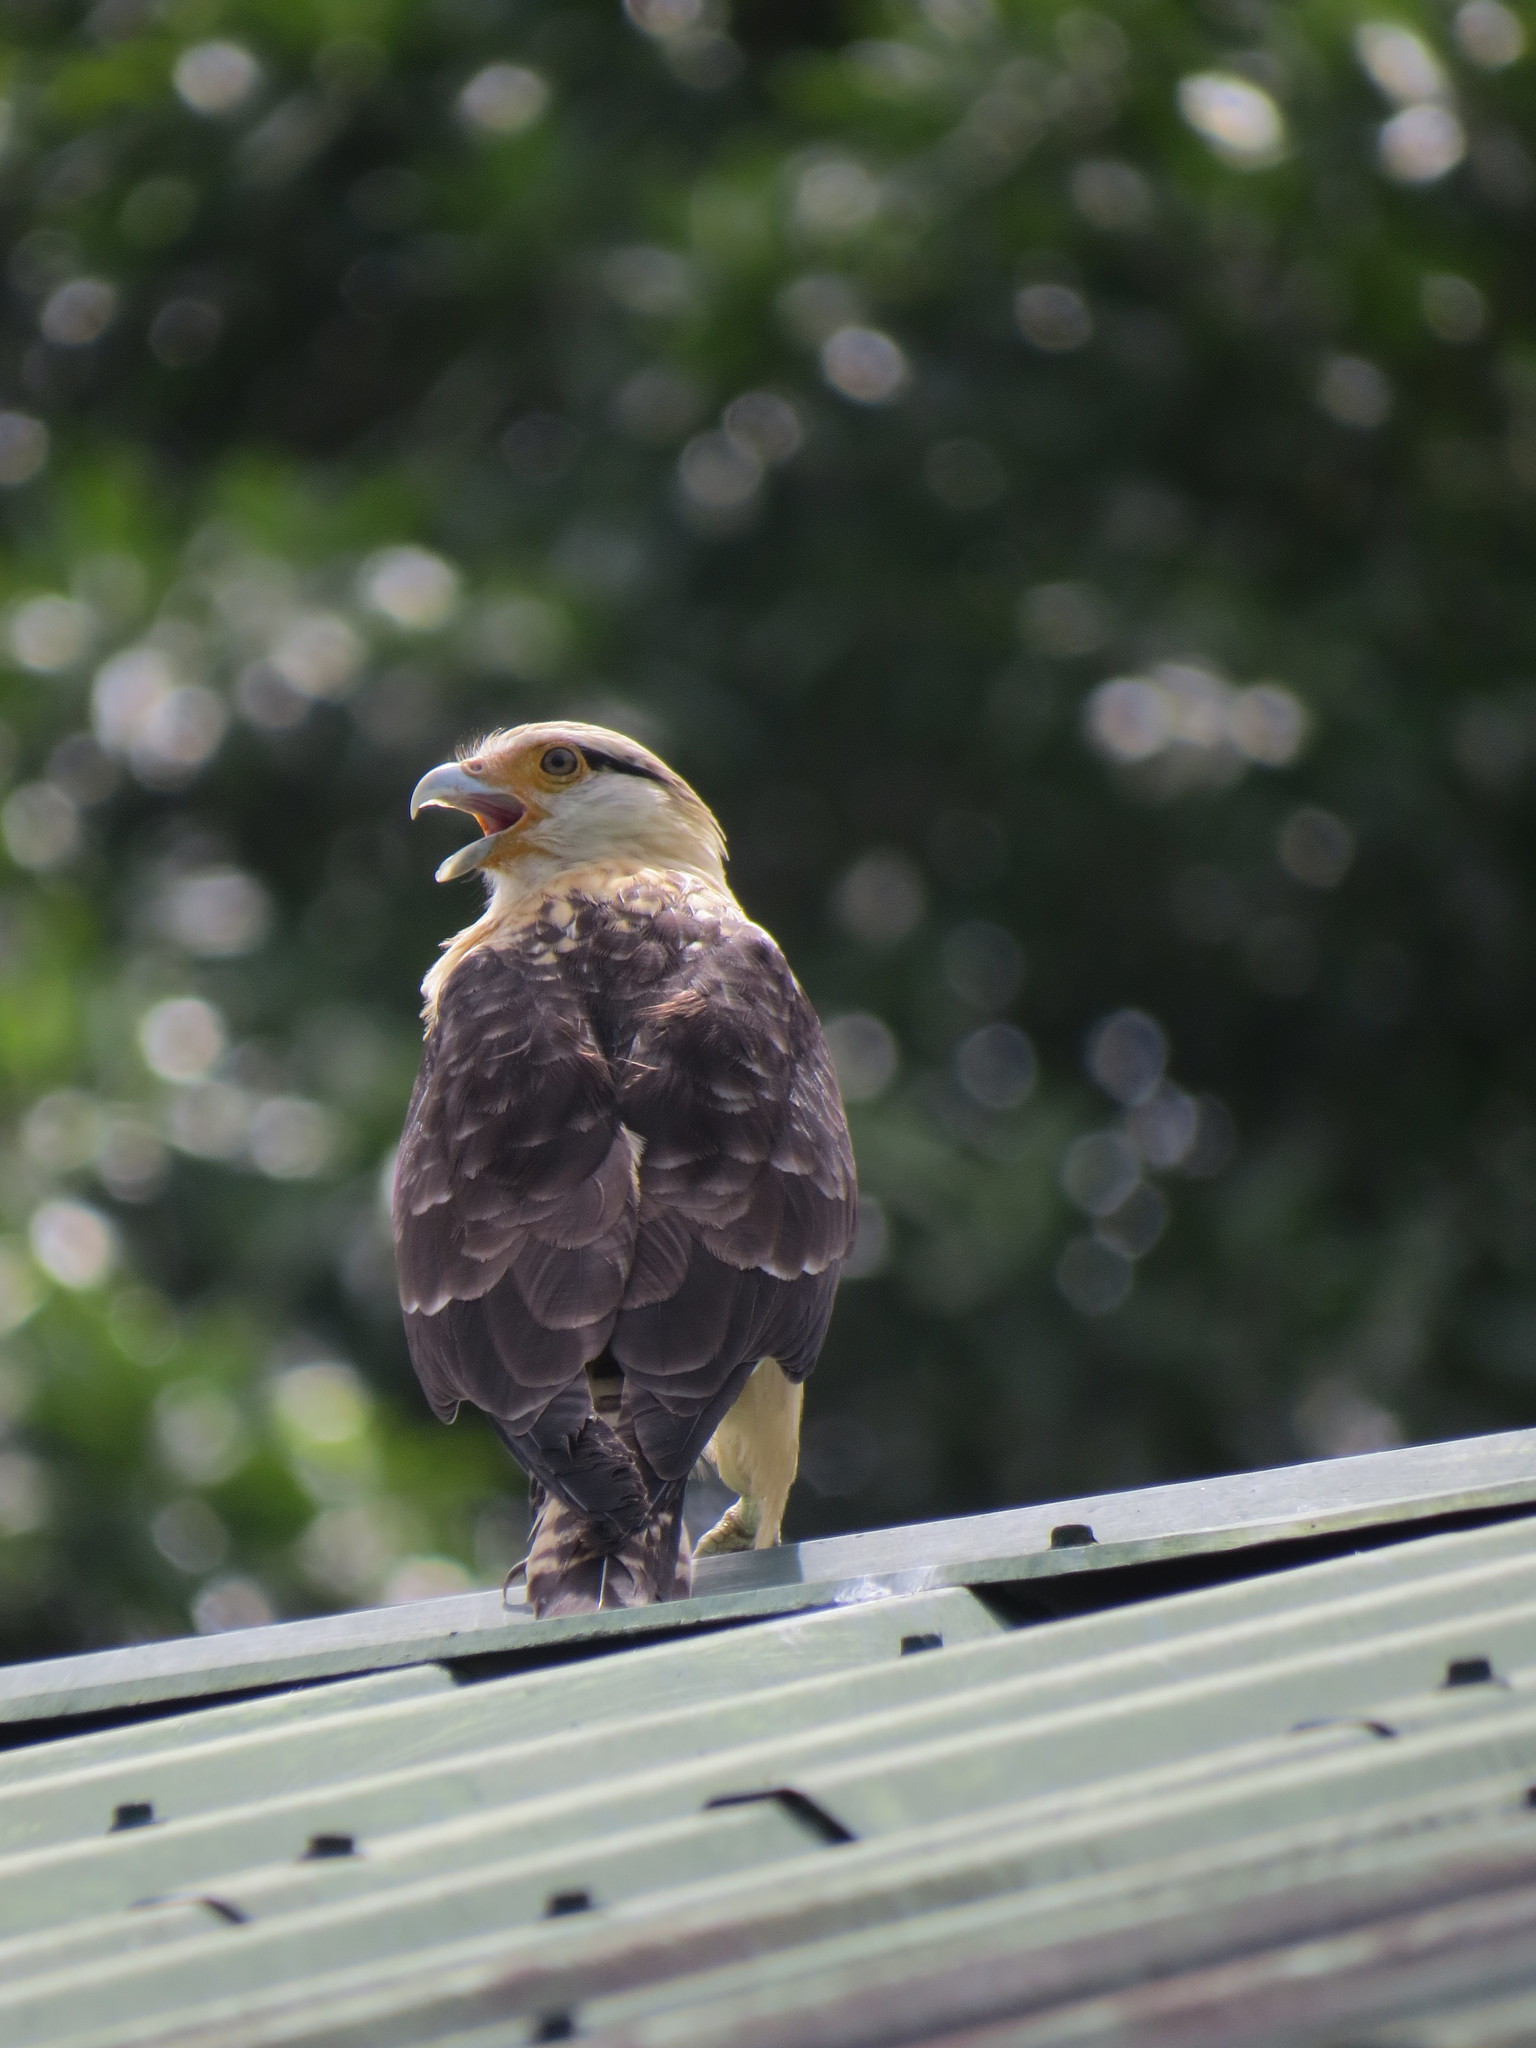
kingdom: Animalia
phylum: Chordata
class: Aves
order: Falconiformes
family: Falconidae
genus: Daptrius
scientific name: Daptrius
